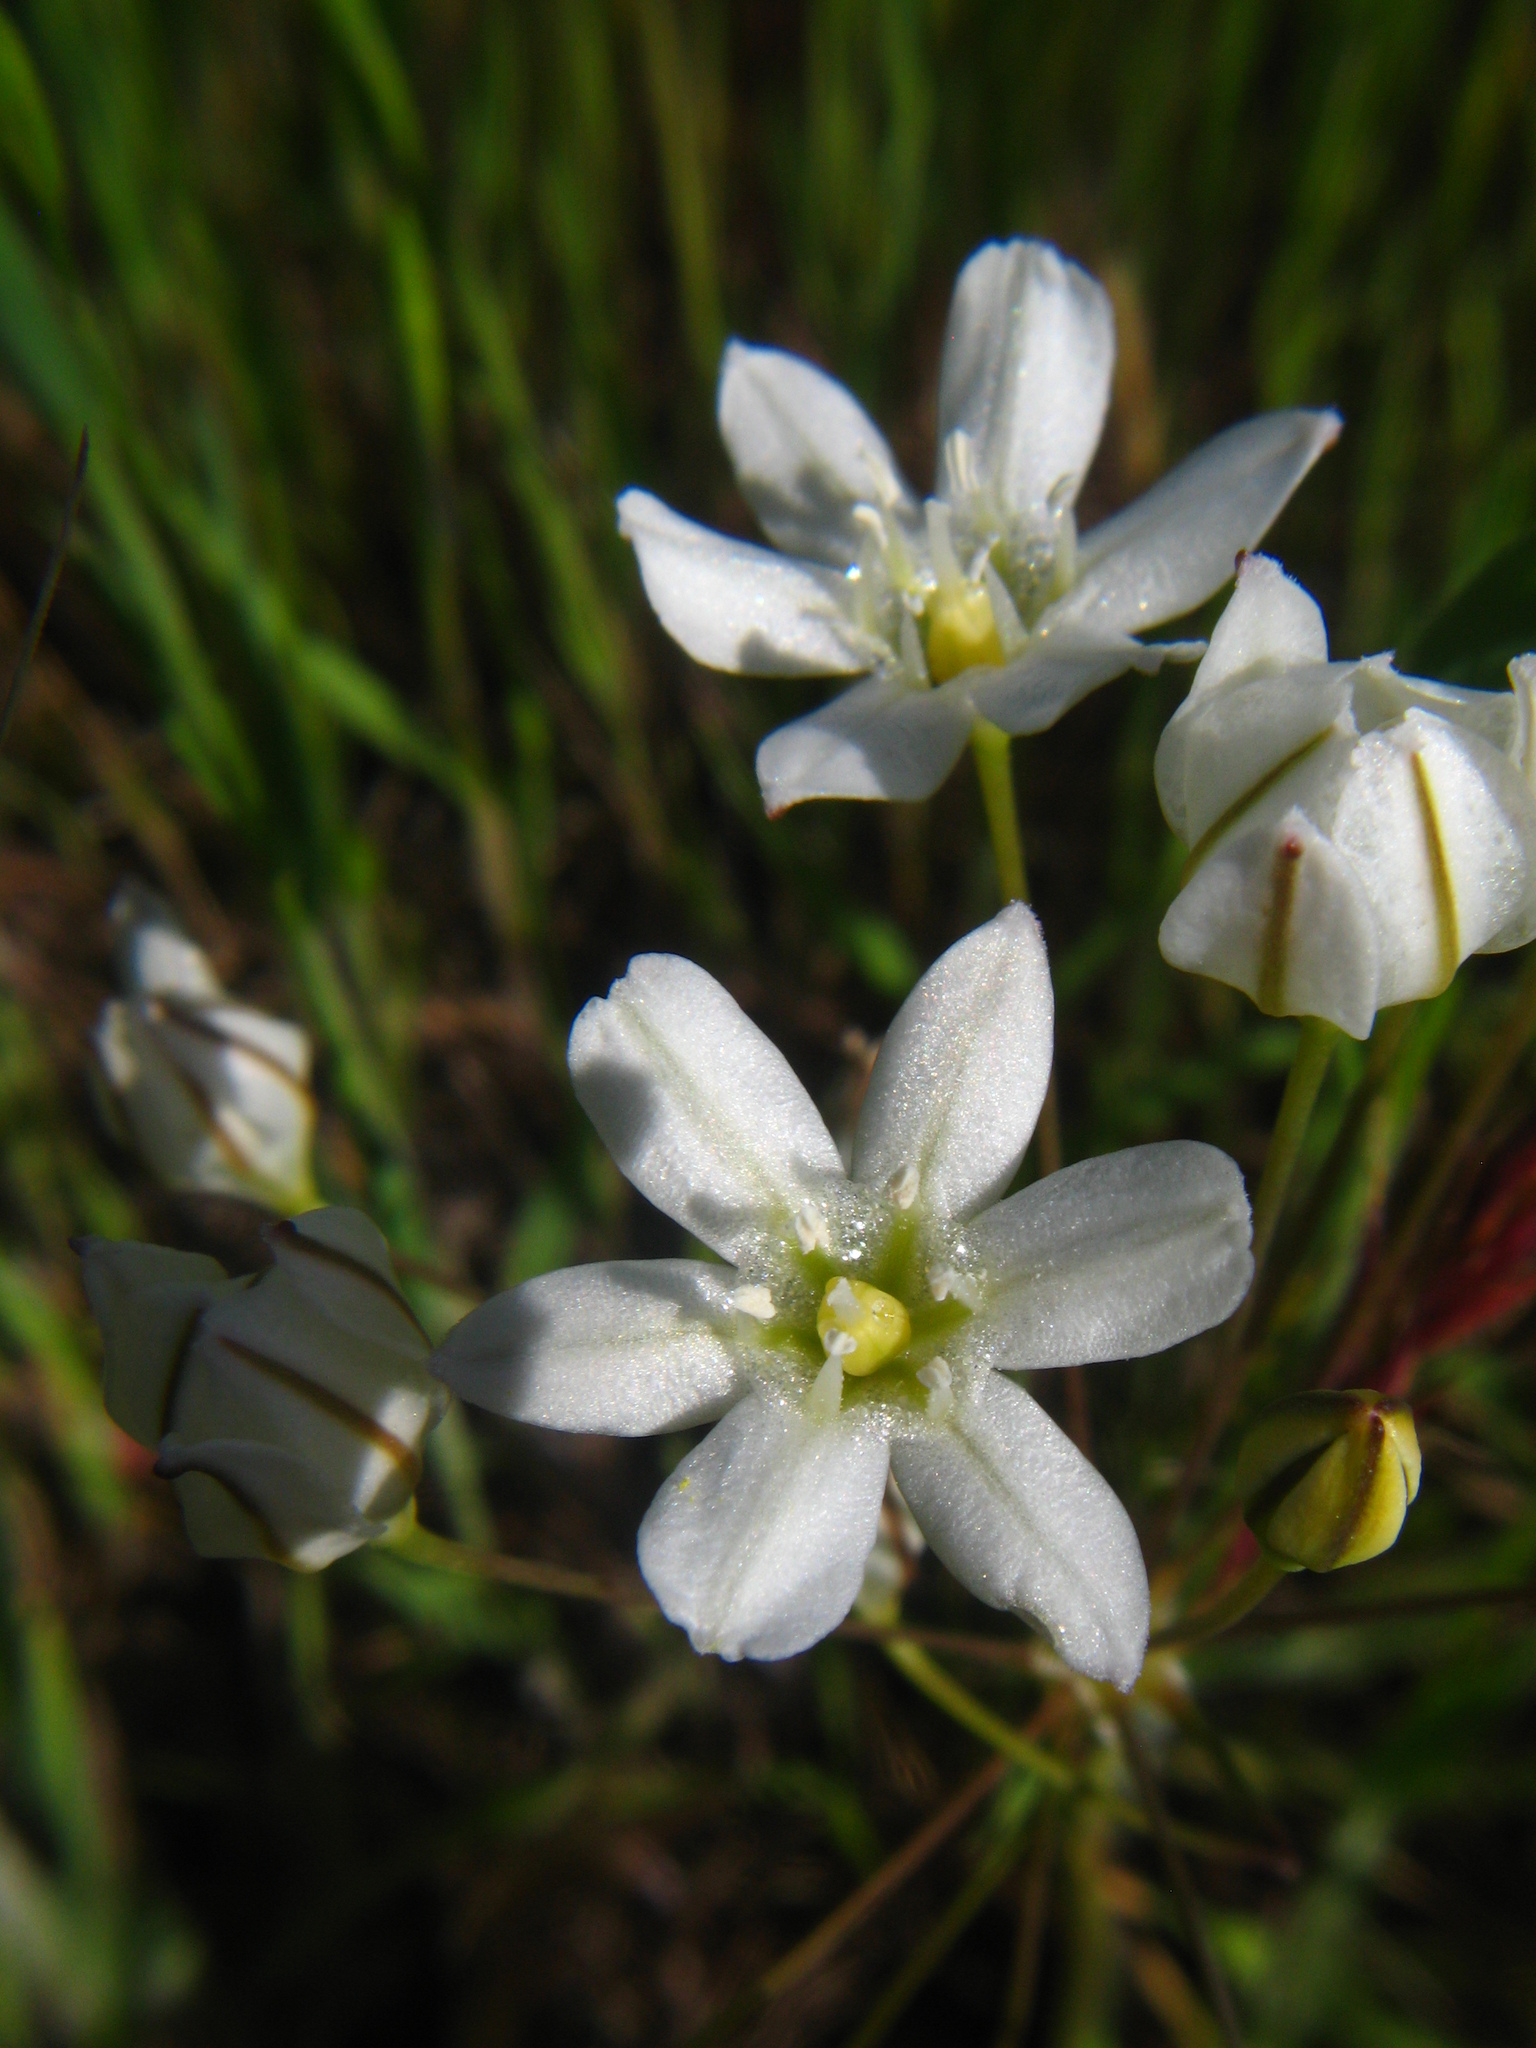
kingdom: Plantae
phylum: Tracheophyta
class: Liliopsida
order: Asparagales
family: Asparagaceae
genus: Triteleia
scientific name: Triteleia lilacina
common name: Lilac-flower wild hyacinth
